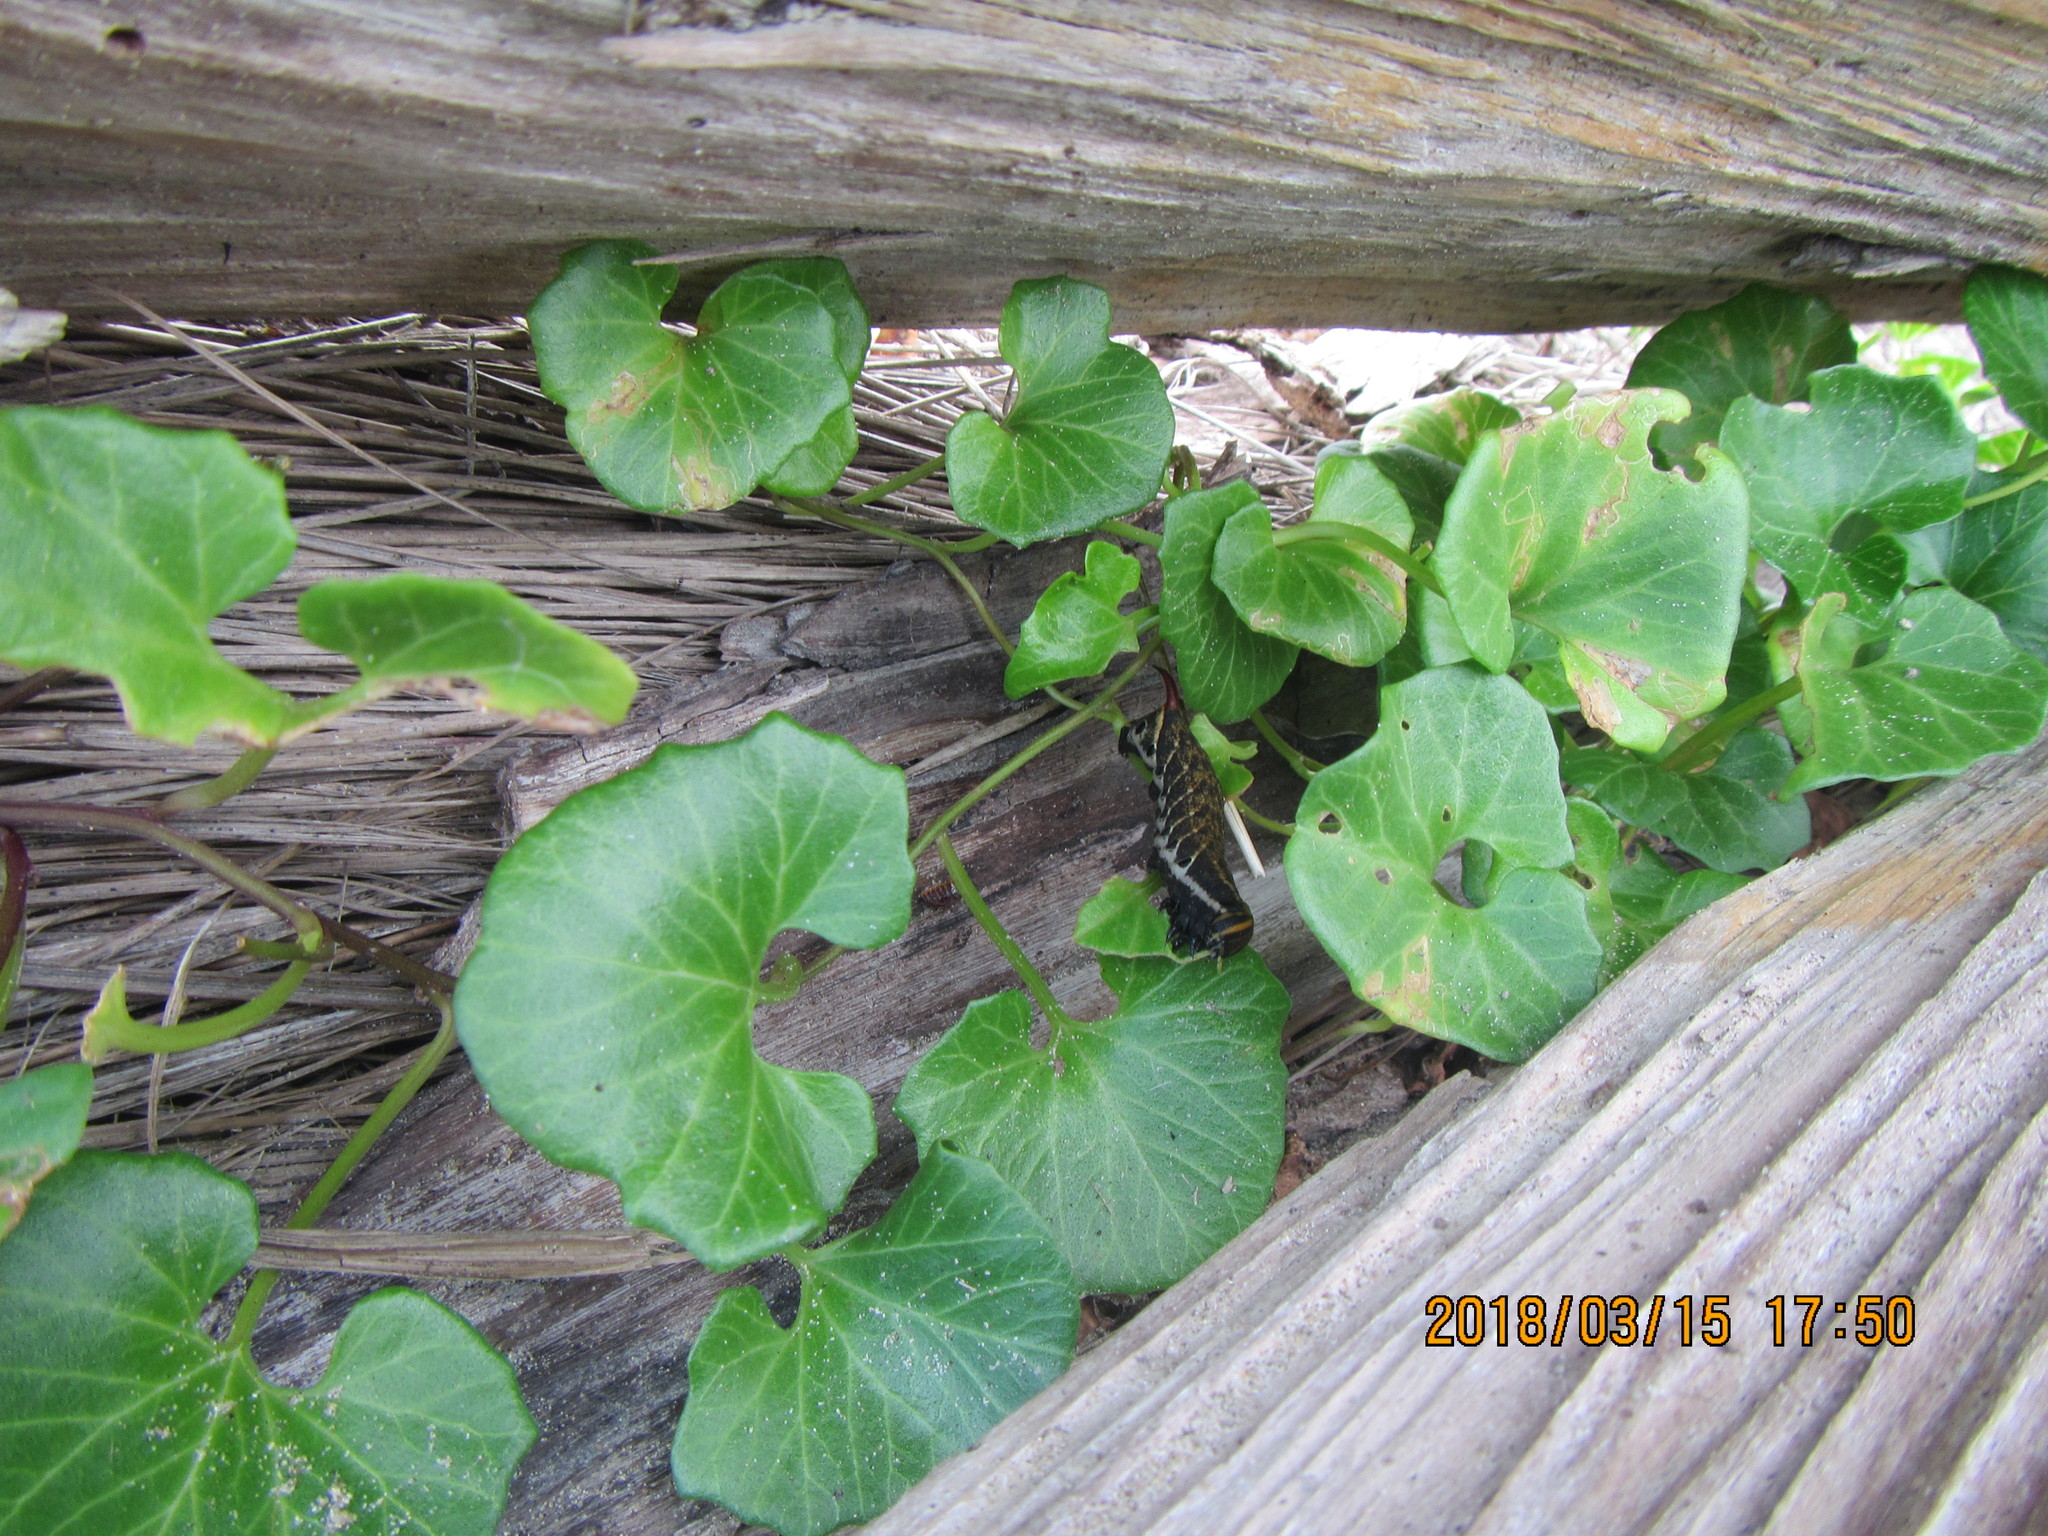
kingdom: Animalia
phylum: Arthropoda
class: Insecta
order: Lepidoptera
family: Sphingidae
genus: Agrius
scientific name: Agrius convolvuli
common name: Convolvulus hawkmoth
